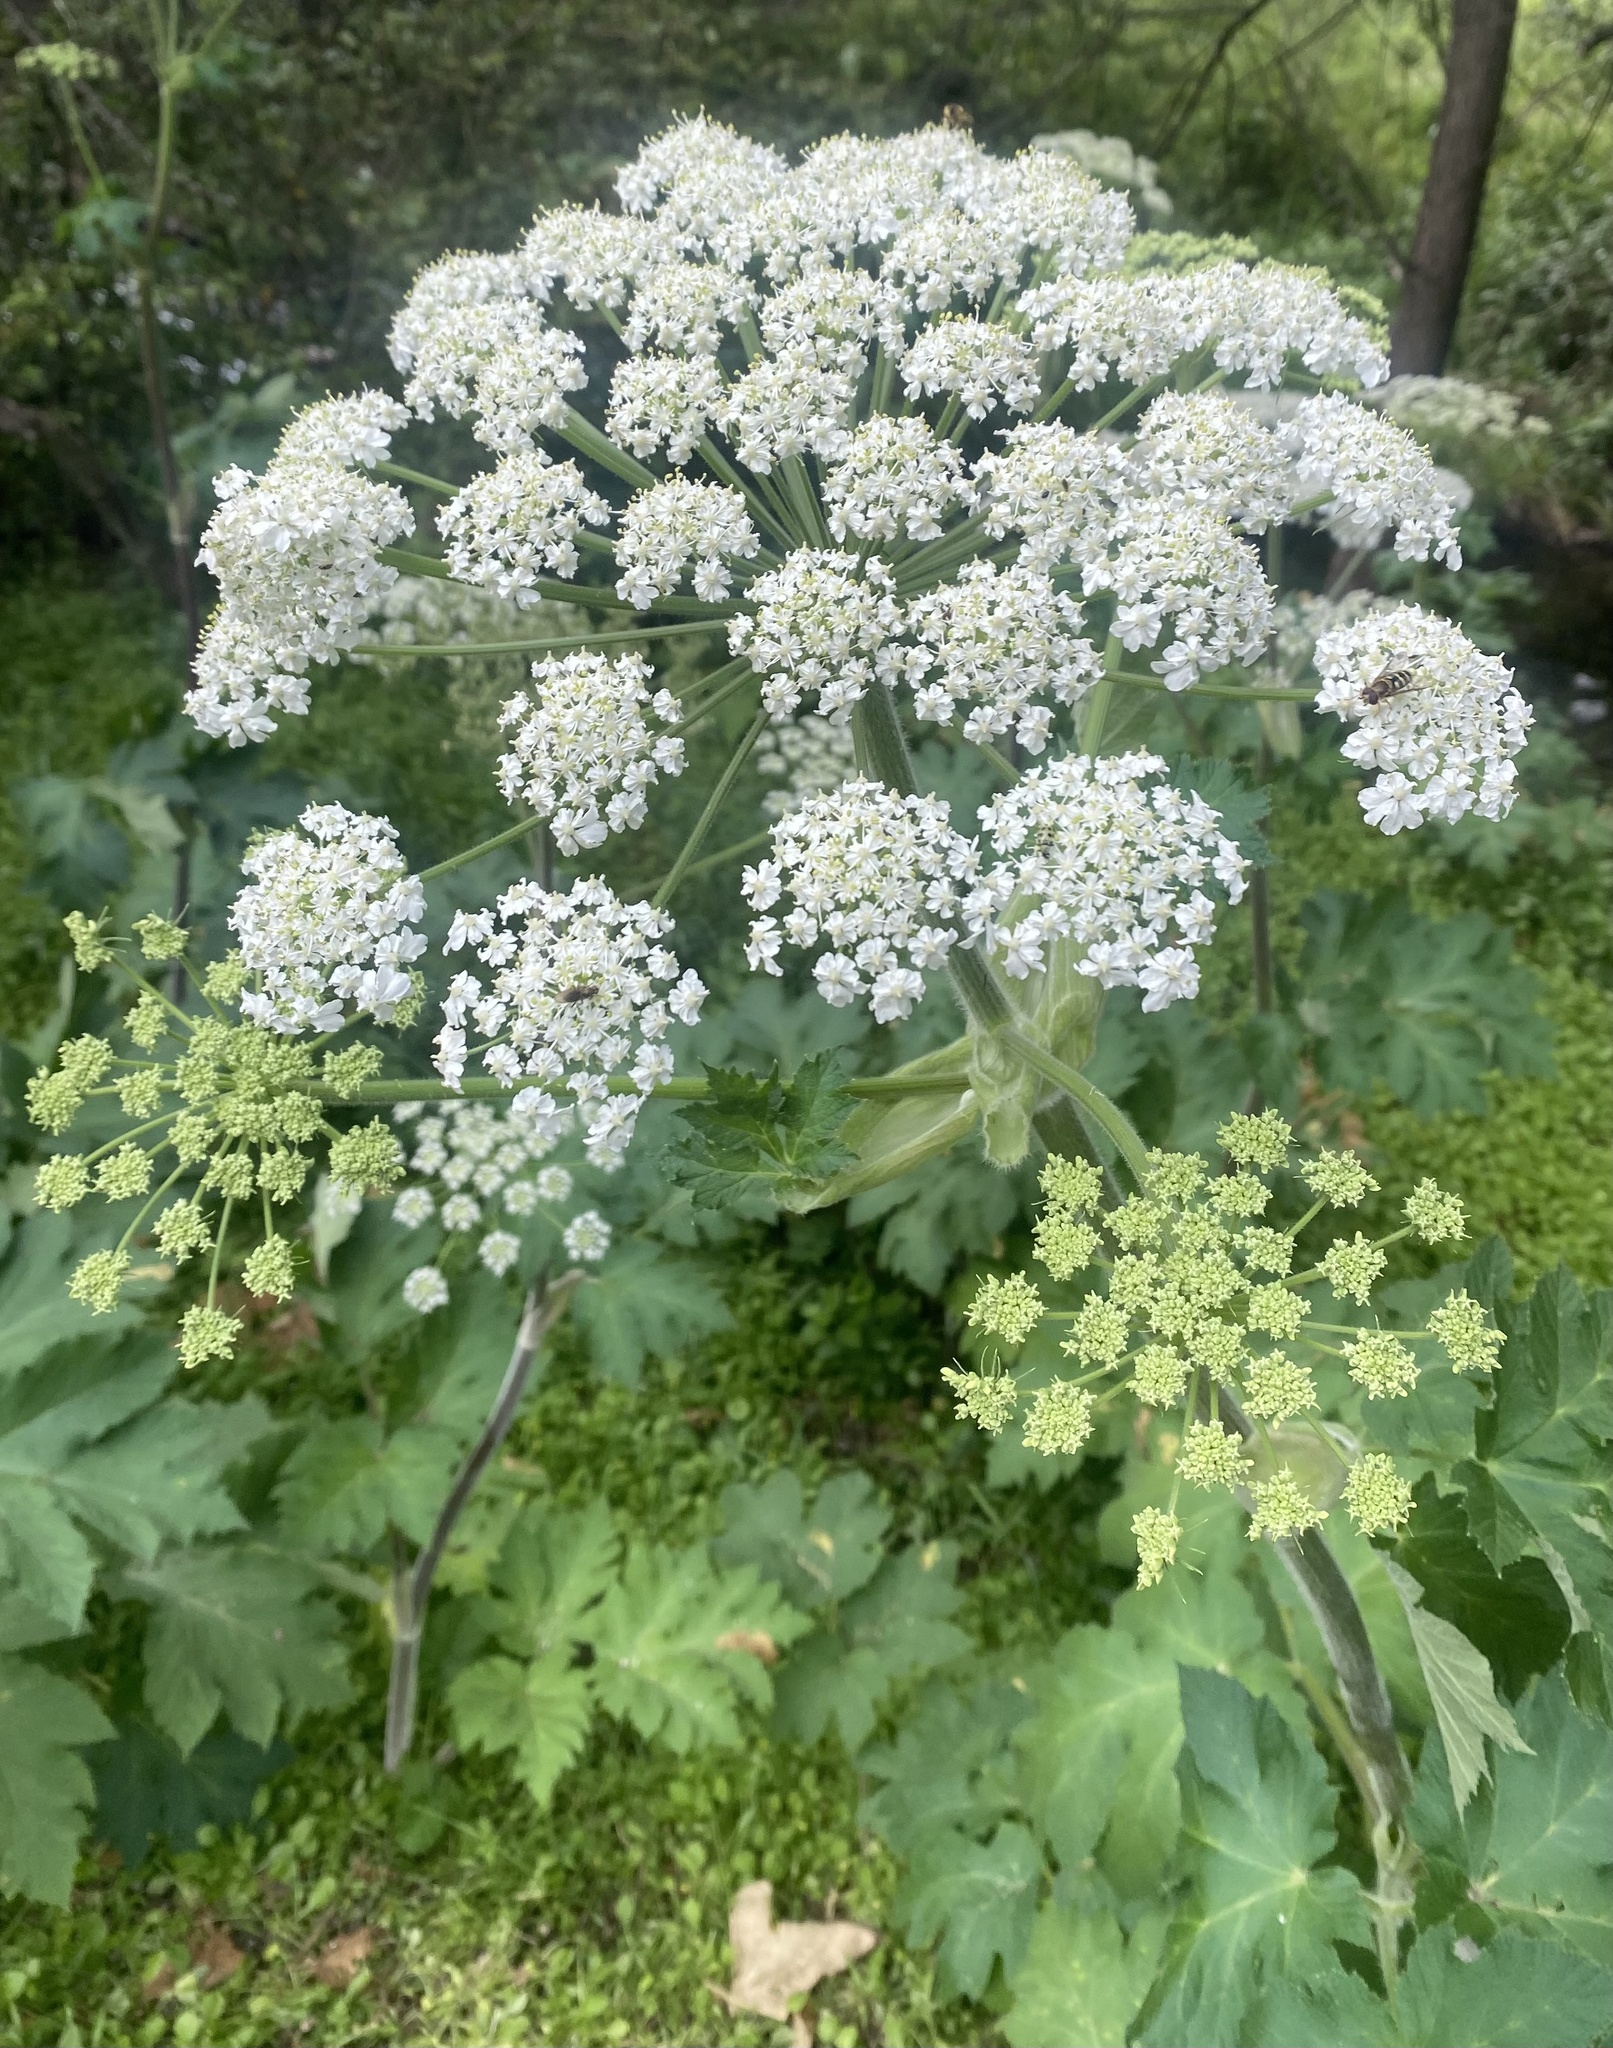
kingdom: Plantae
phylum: Tracheophyta
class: Magnoliopsida
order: Apiales
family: Apiaceae
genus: Heracleum
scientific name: Heracleum maximum
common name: American cow parsnip
